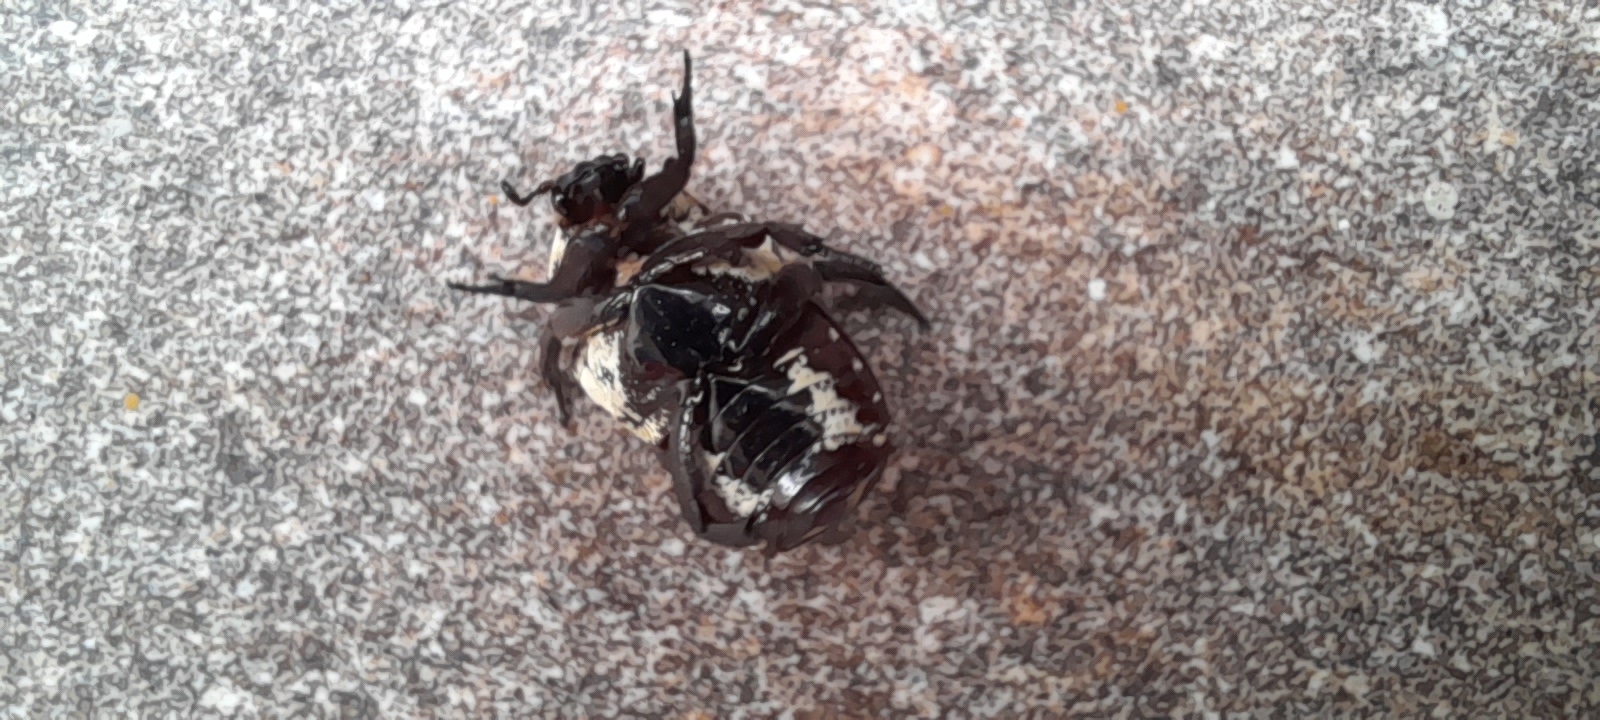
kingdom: Animalia
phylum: Arthropoda
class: Insecta
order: Coleoptera
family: Scarabaeidae
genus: Protaetia
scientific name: Protaetia aurichalcea
